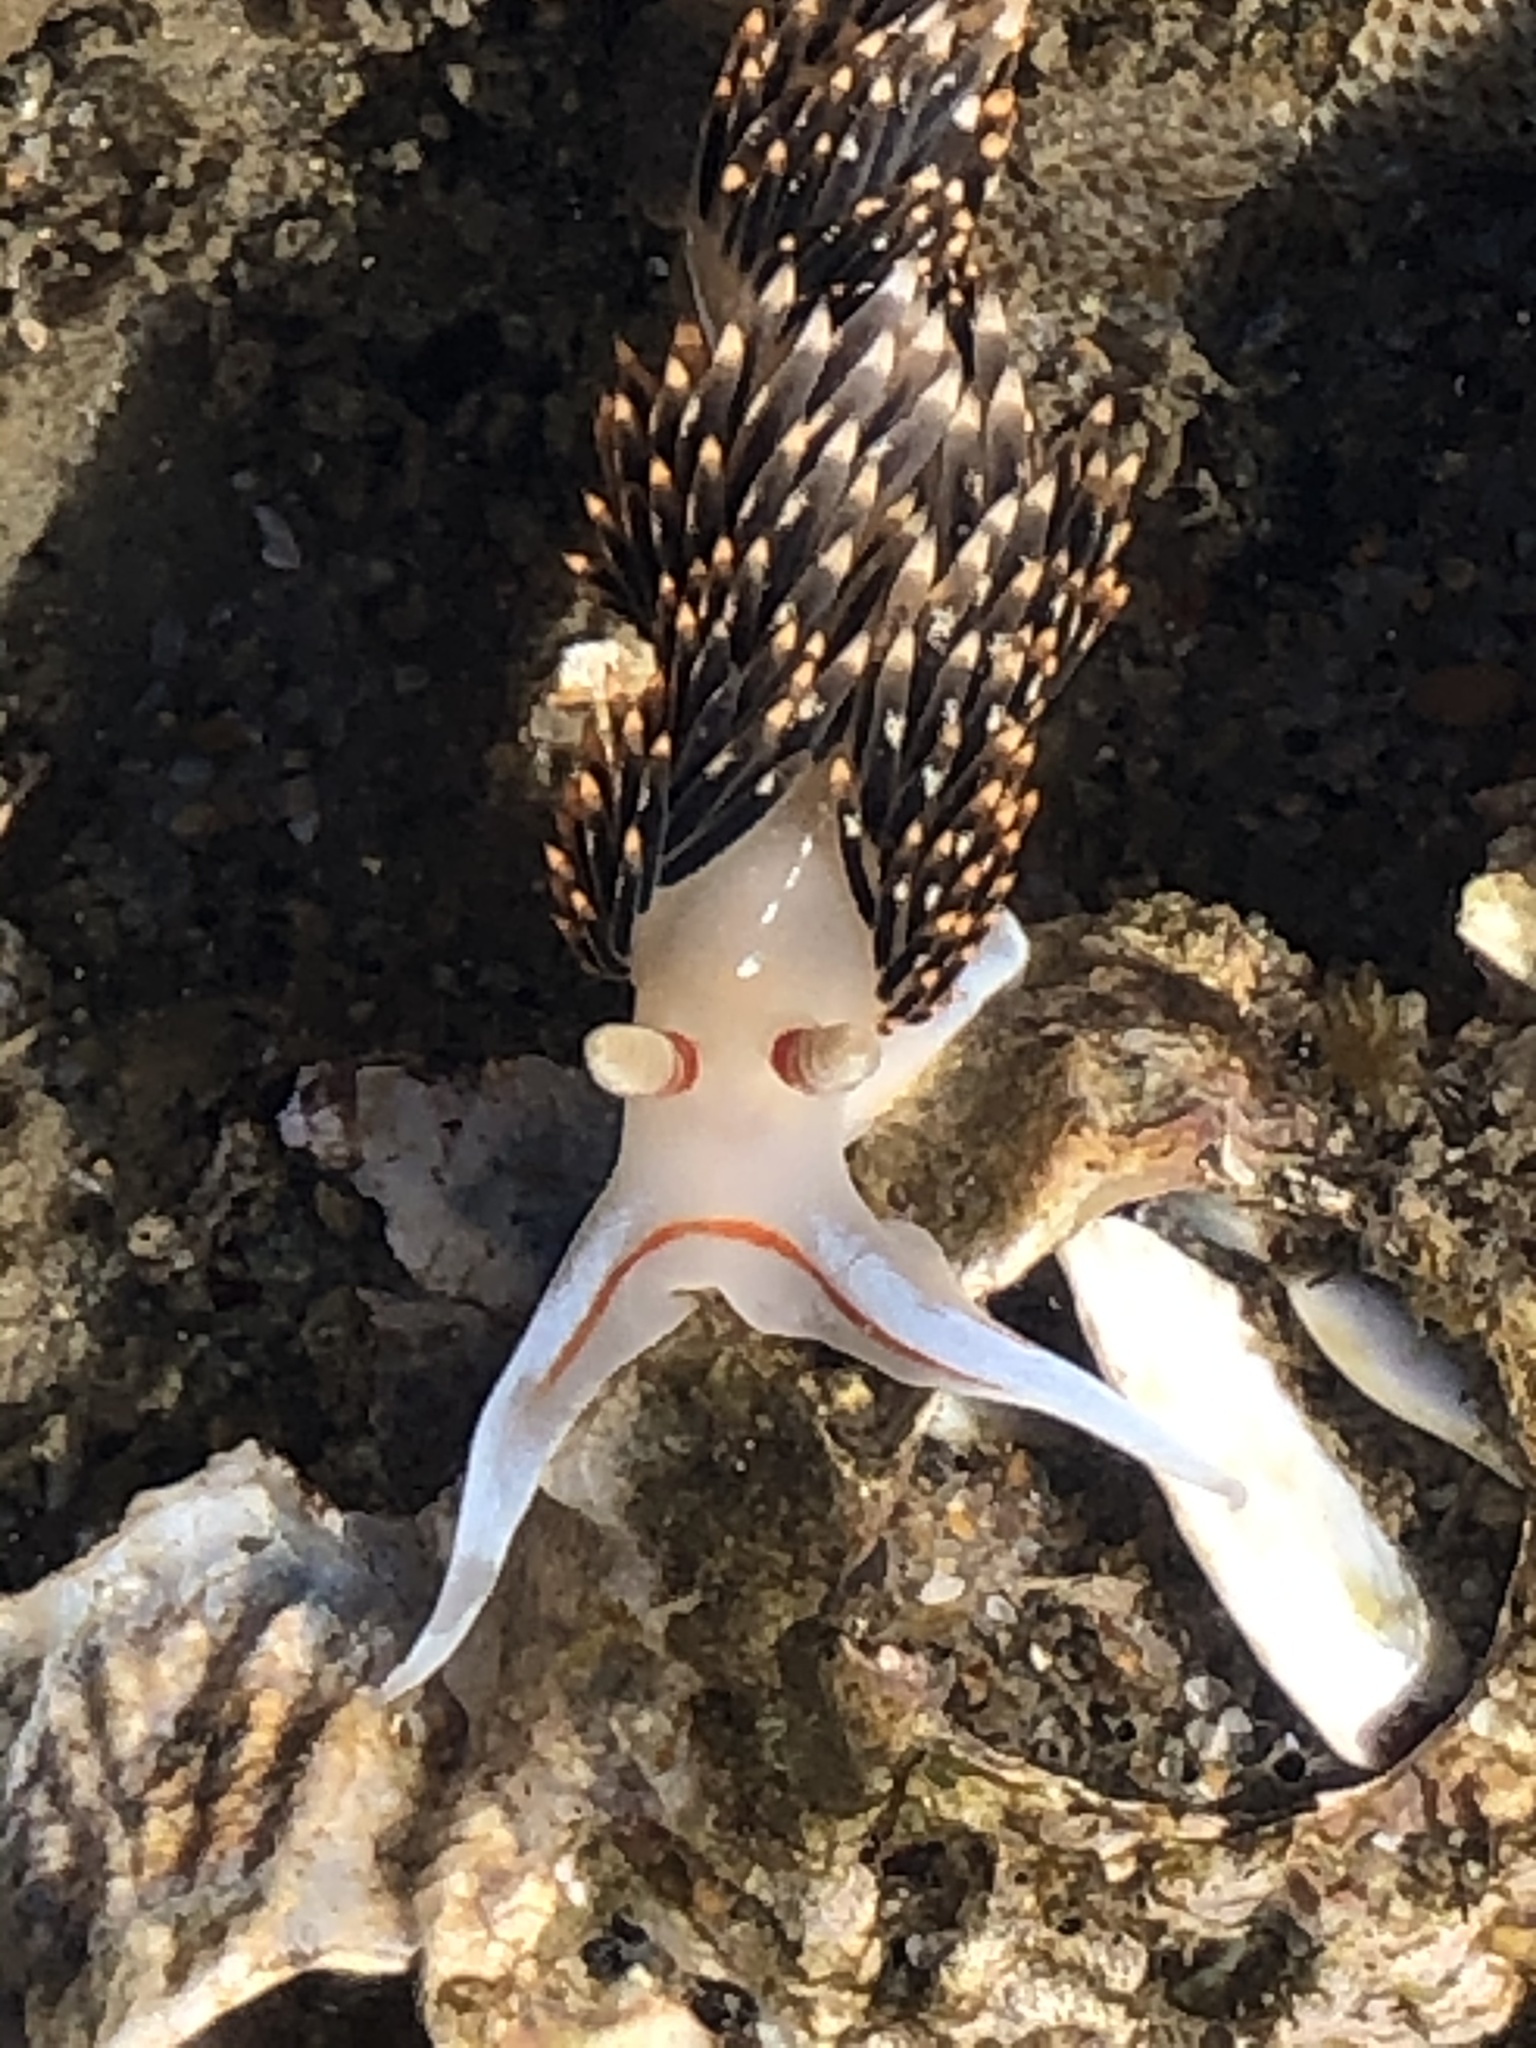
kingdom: Animalia
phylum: Mollusca
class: Gastropoda
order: Nudibranchia
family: Facelinidae
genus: Phidiana
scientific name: Phidiana hiltoni
